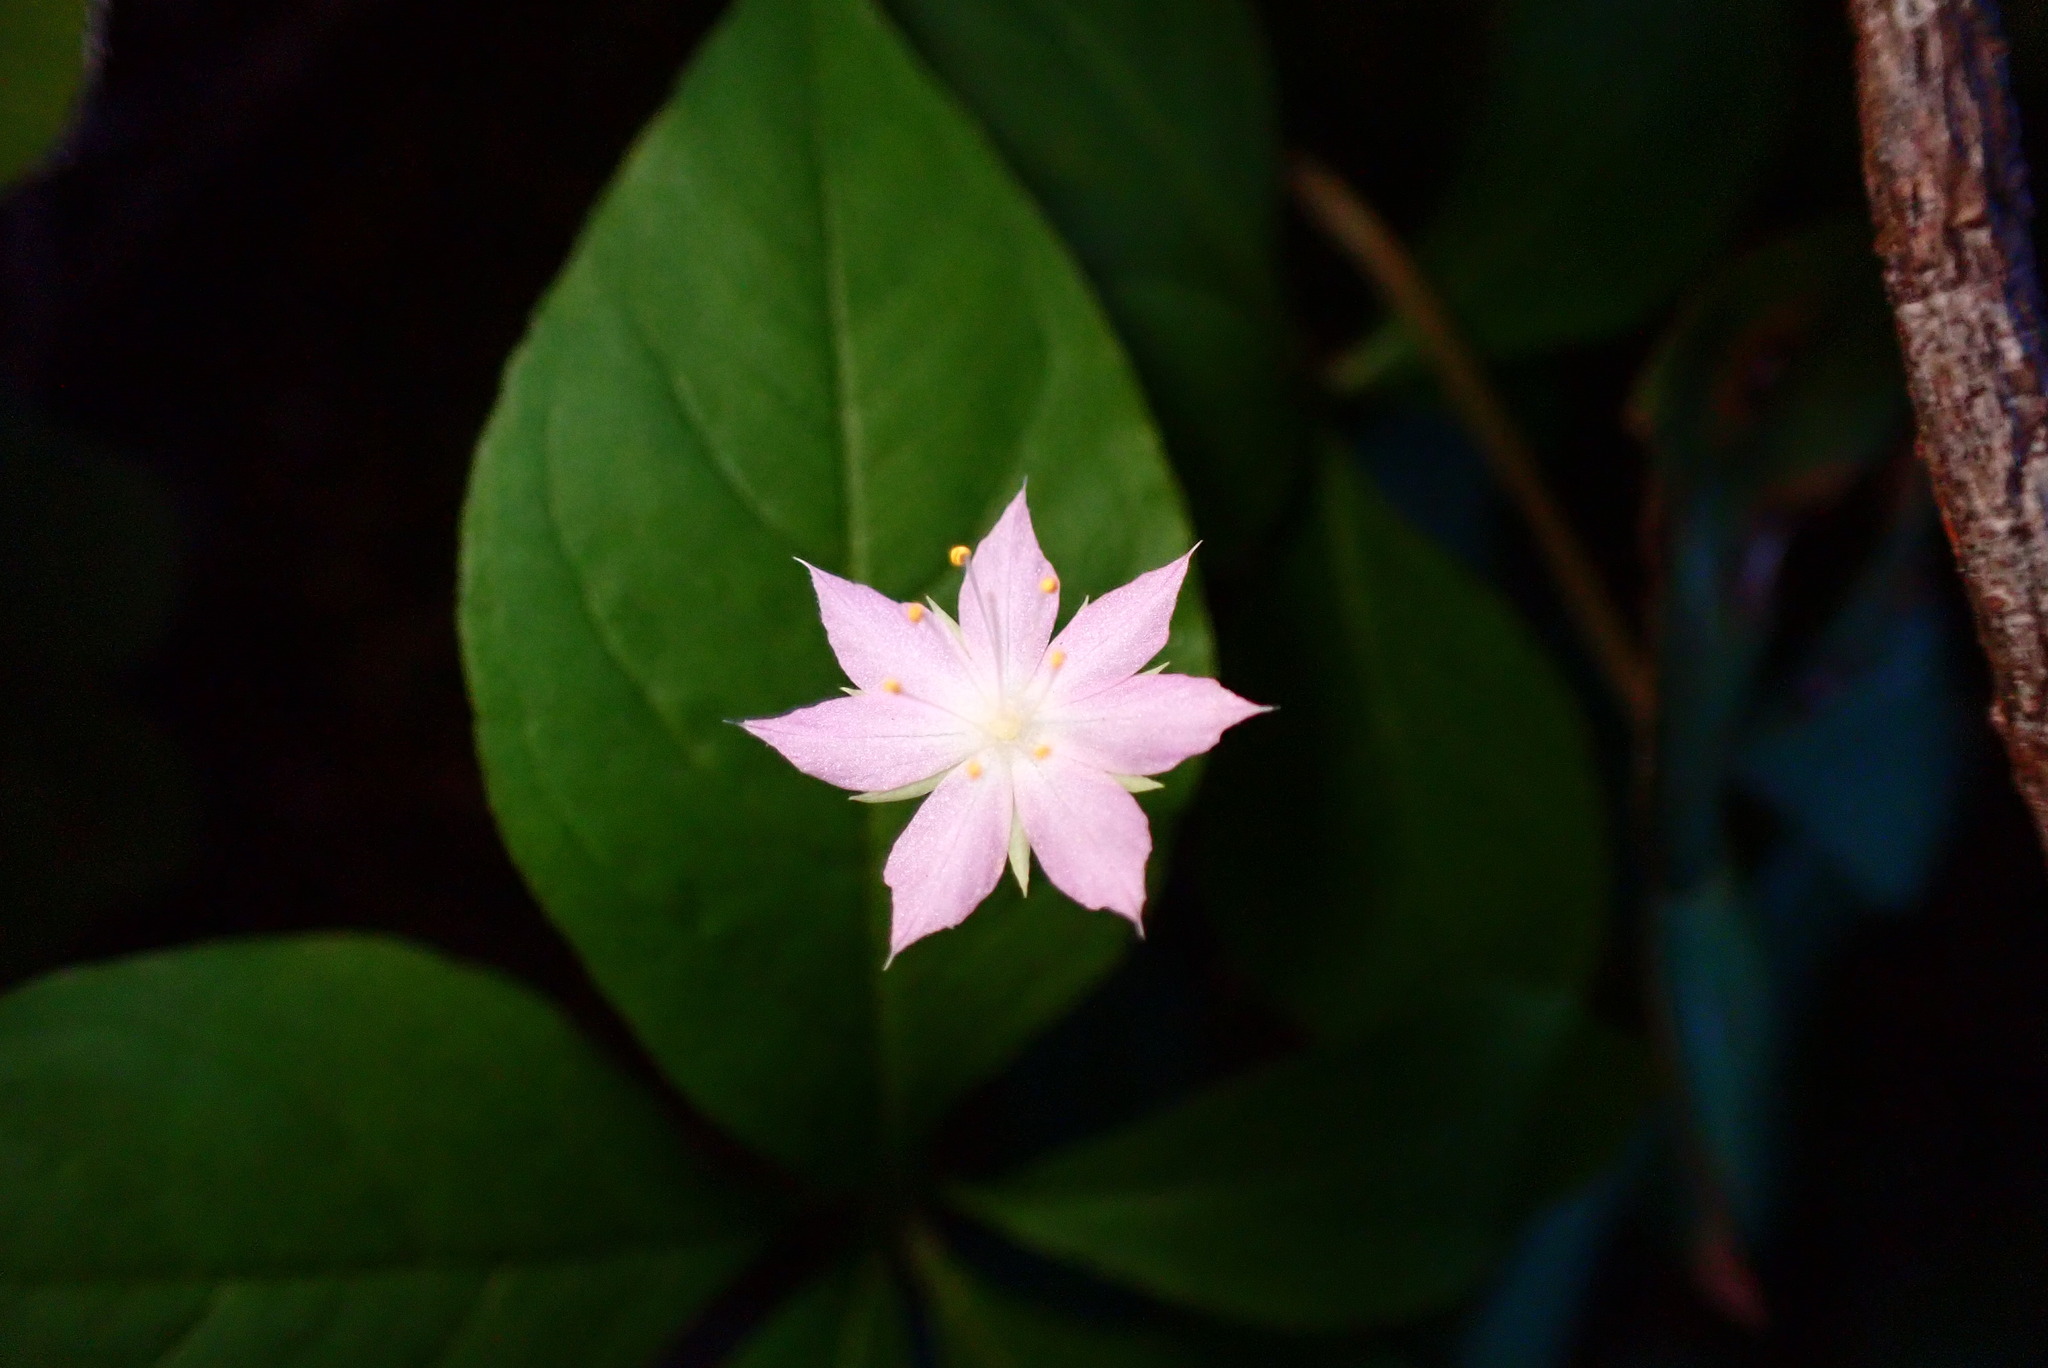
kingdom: Plantae
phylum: Tracheophyta
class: Magnoliopsida
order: Ericales
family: Primulaceae
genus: Lysimachia
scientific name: Lysimachia latifolia
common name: Pacific starflower
